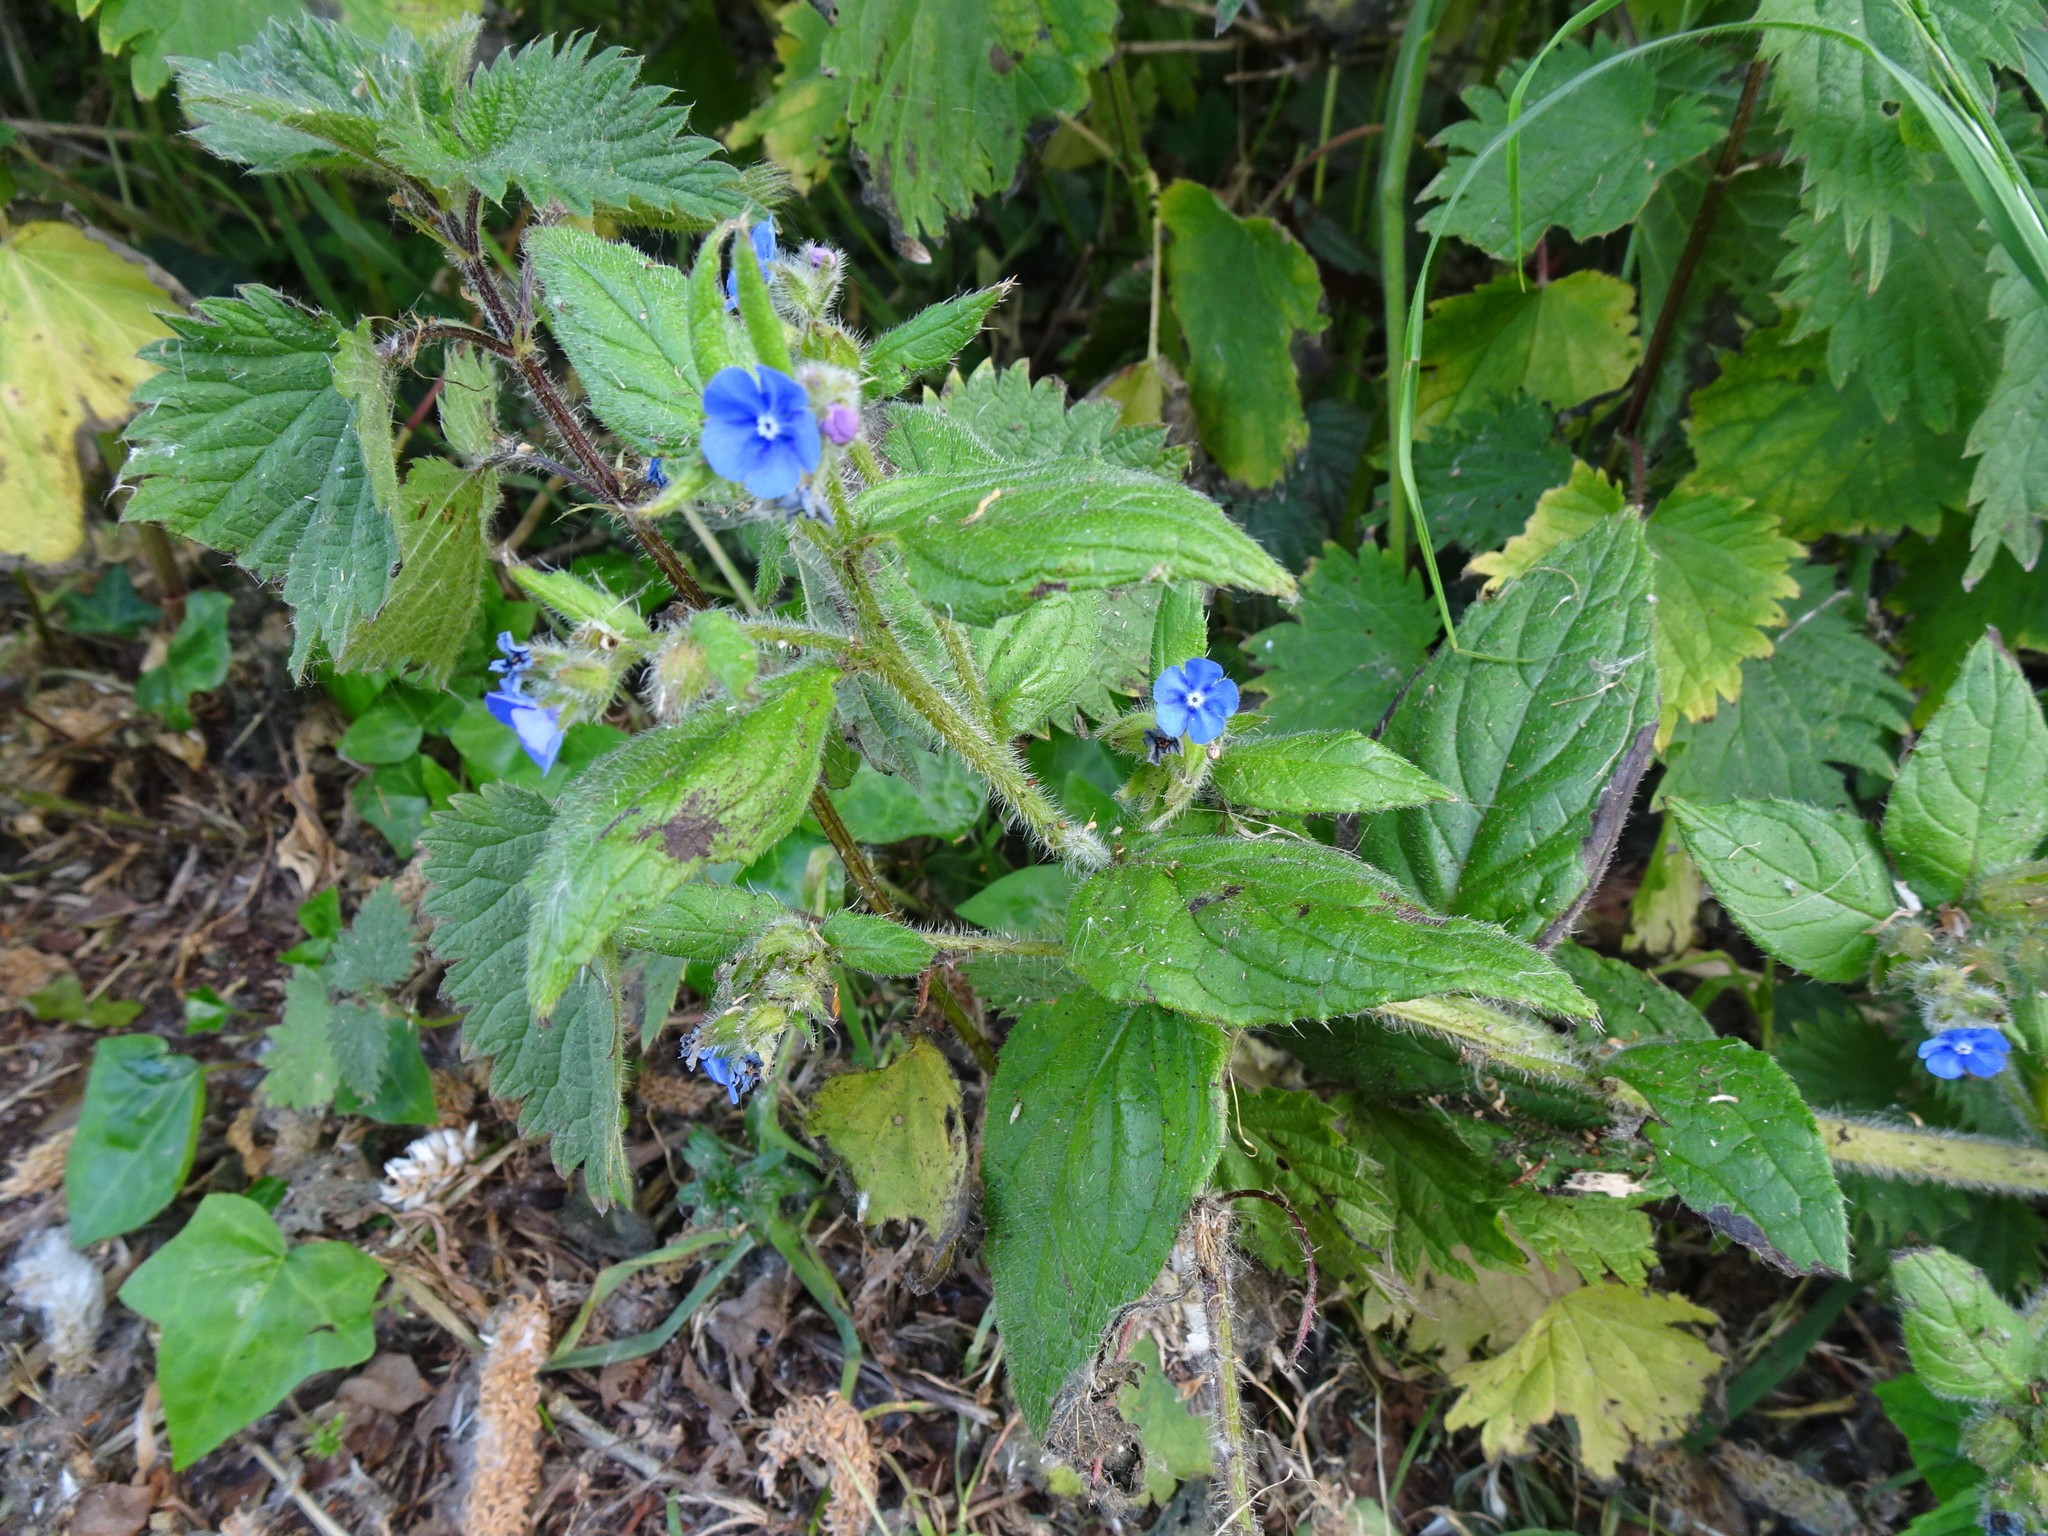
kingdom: Plantae
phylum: Tracheophyta
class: Magnoliopsida
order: Boraginales
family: Boraginaceae
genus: Pentaglottis
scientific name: Pentaglottis sempervirens
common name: Green alkanet
